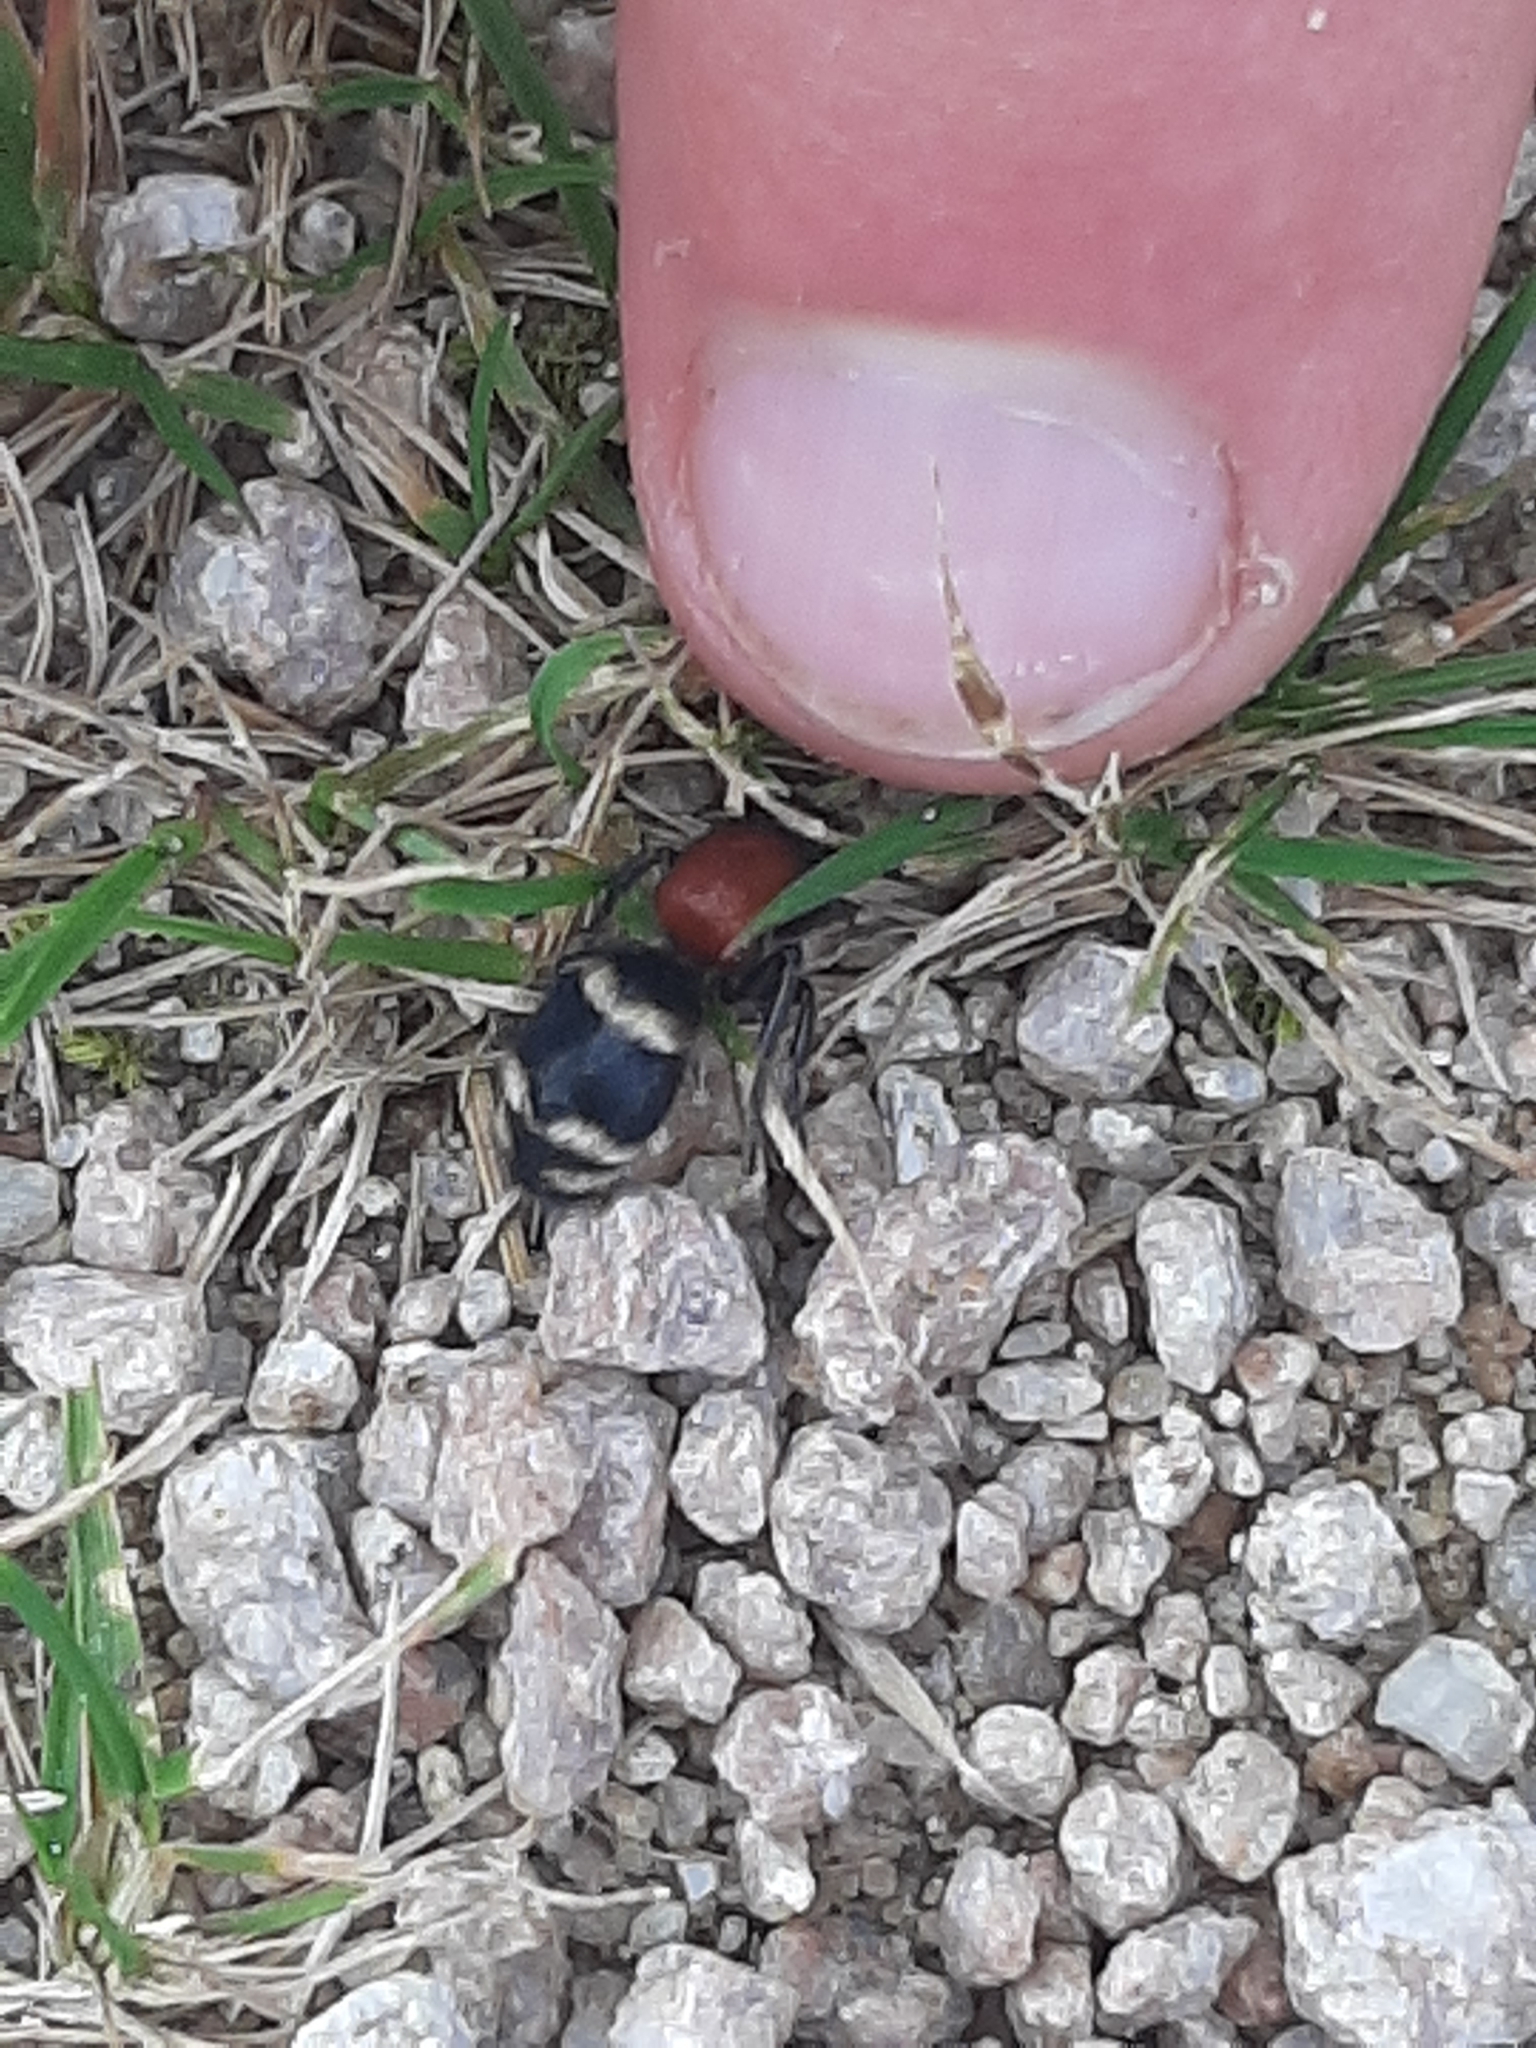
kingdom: Animalia
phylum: Arthropoda
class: Insecta
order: Hymenoptera
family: Mutillidae
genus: Mutilla
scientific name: Mutilla europaea
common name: Large velvet ant
